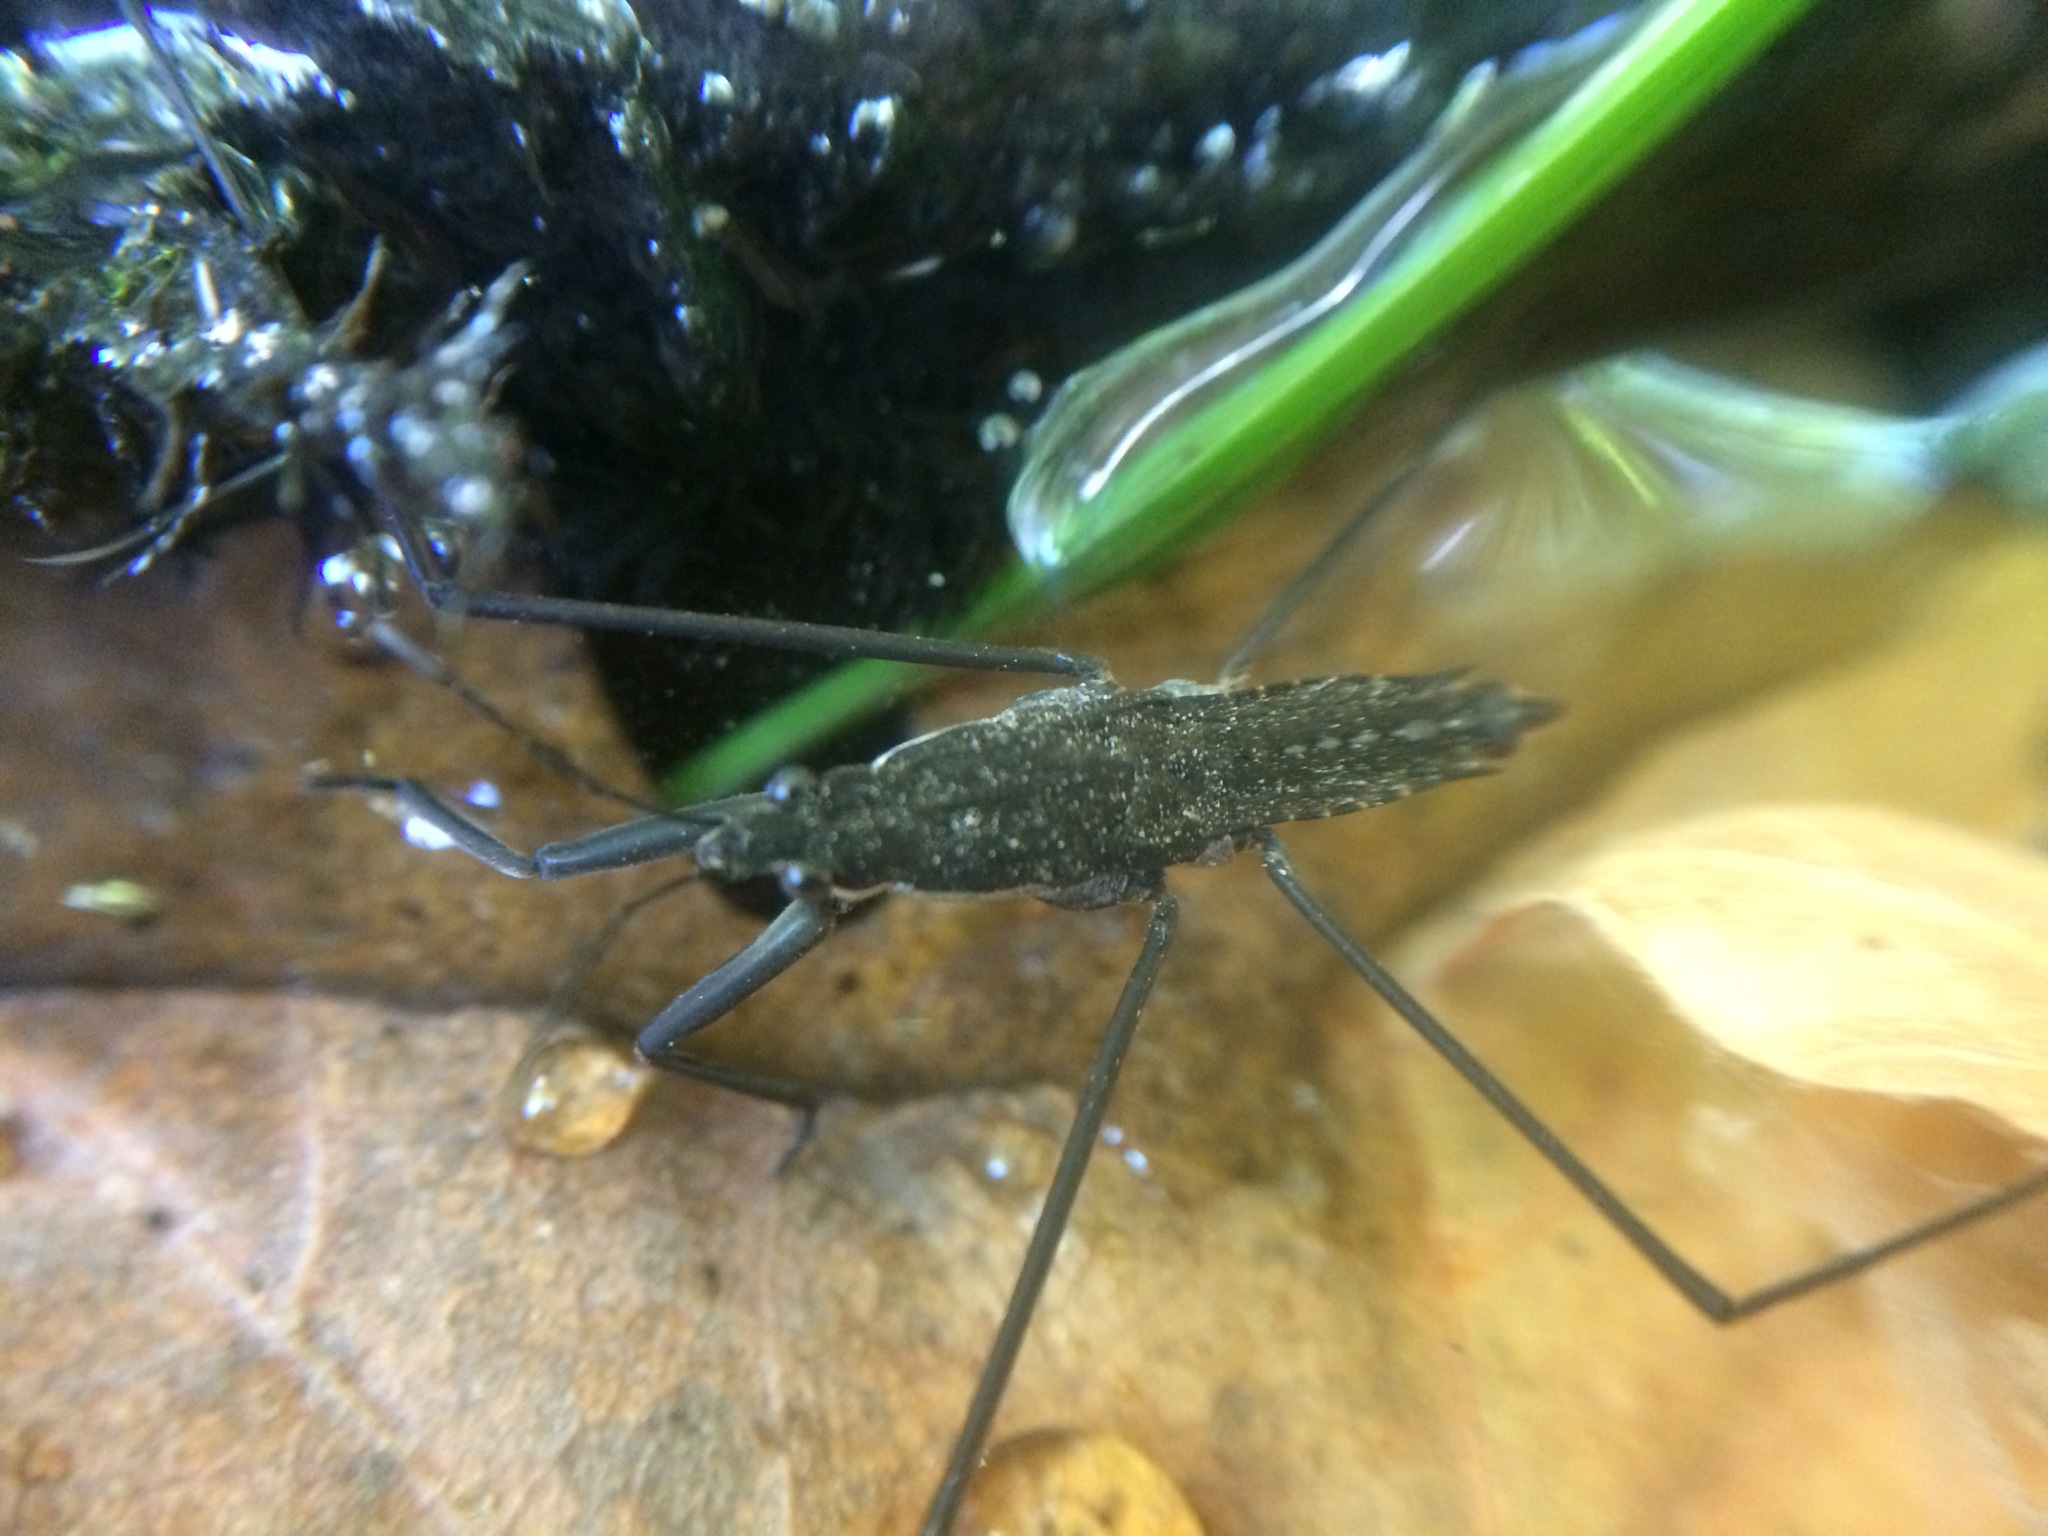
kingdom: Animalia
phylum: Arthropoda
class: Insecta
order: Hemiptera
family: Gerridae
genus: Aquarius
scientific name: Aquarius remigis
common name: Common water strider
